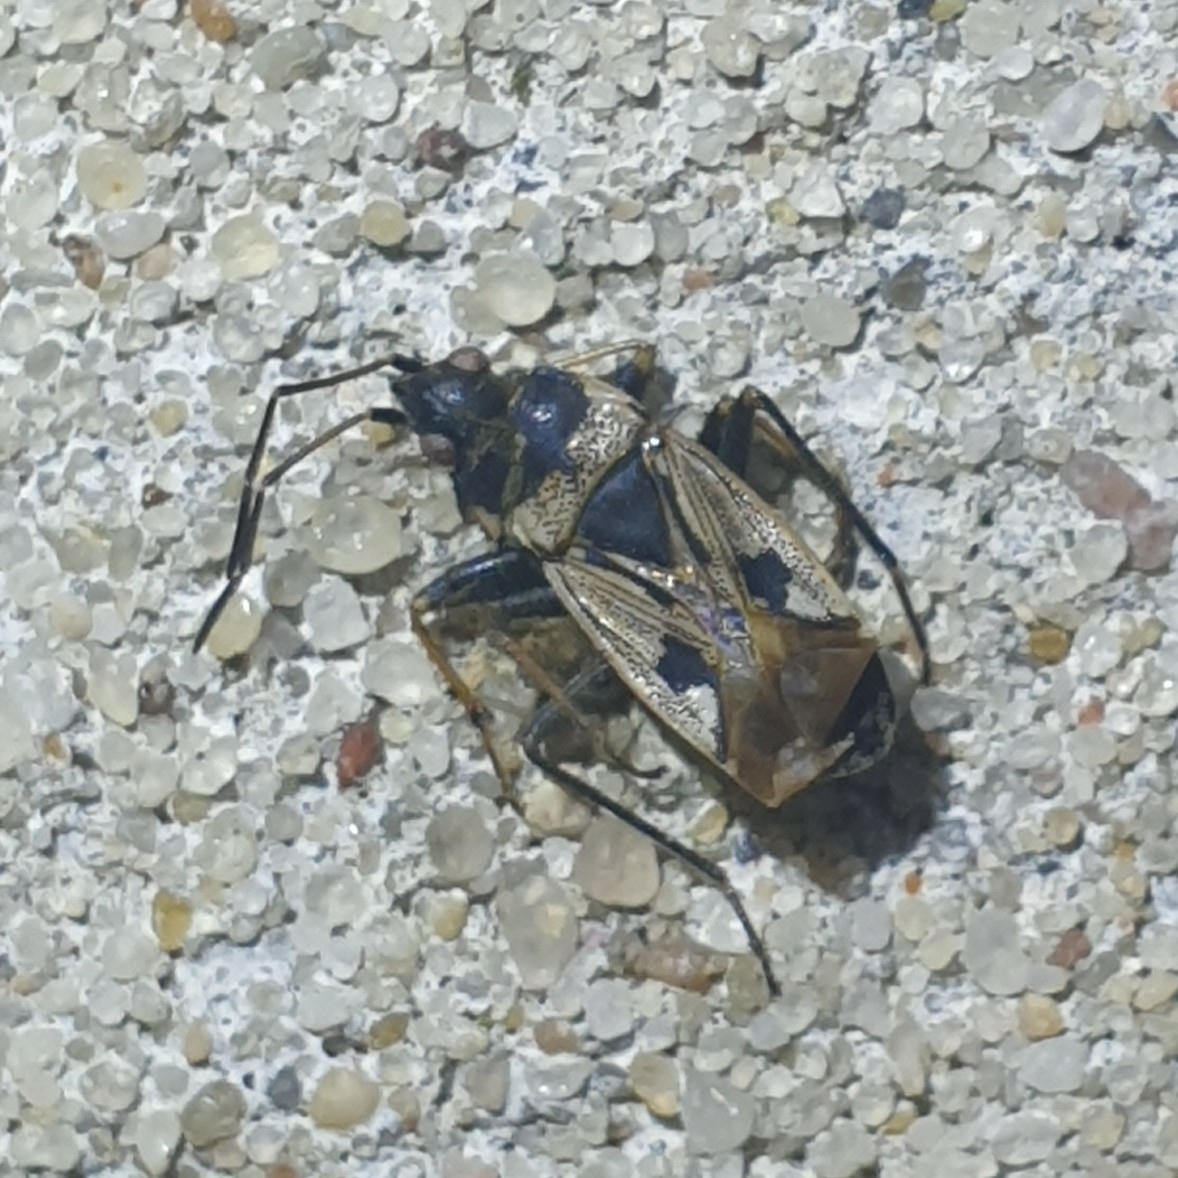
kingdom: Animalia
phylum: Arthropoda
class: Insecta
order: Hemiptera
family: Rhyparochromidae
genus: Rhyparochromus
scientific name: Rhyparochromus vulgaris
